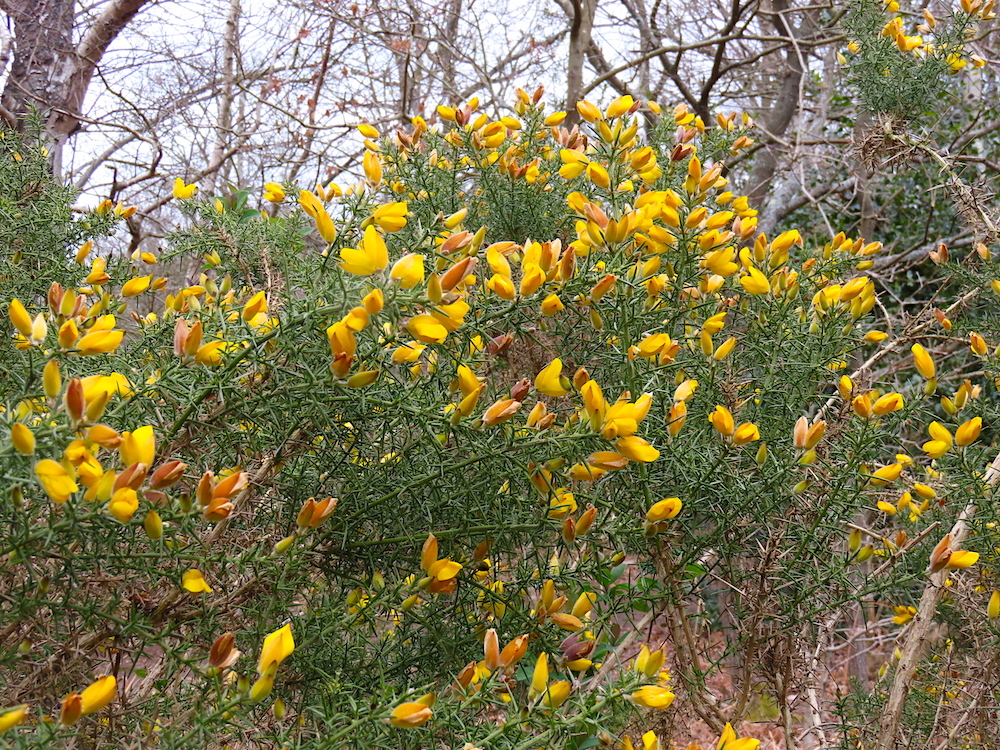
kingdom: Plantae
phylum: Tracheophyta
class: Magnoliopsida
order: Fabales
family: Fabaceae
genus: Ulex
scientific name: Ulex europaeus
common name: Common gorse
